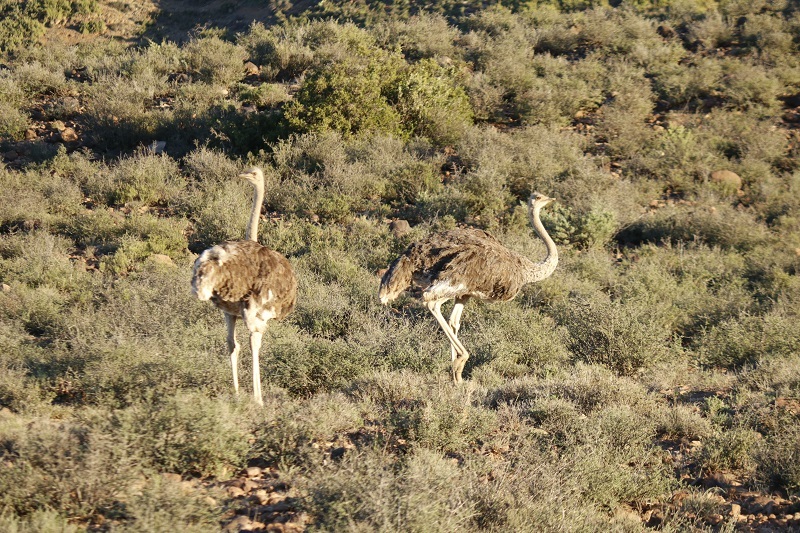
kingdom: Animalia
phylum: Chordata
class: Aves
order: Struthioniformes
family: Struthionidae
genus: Struthio
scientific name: Struthio camelus
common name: Common ostrich
